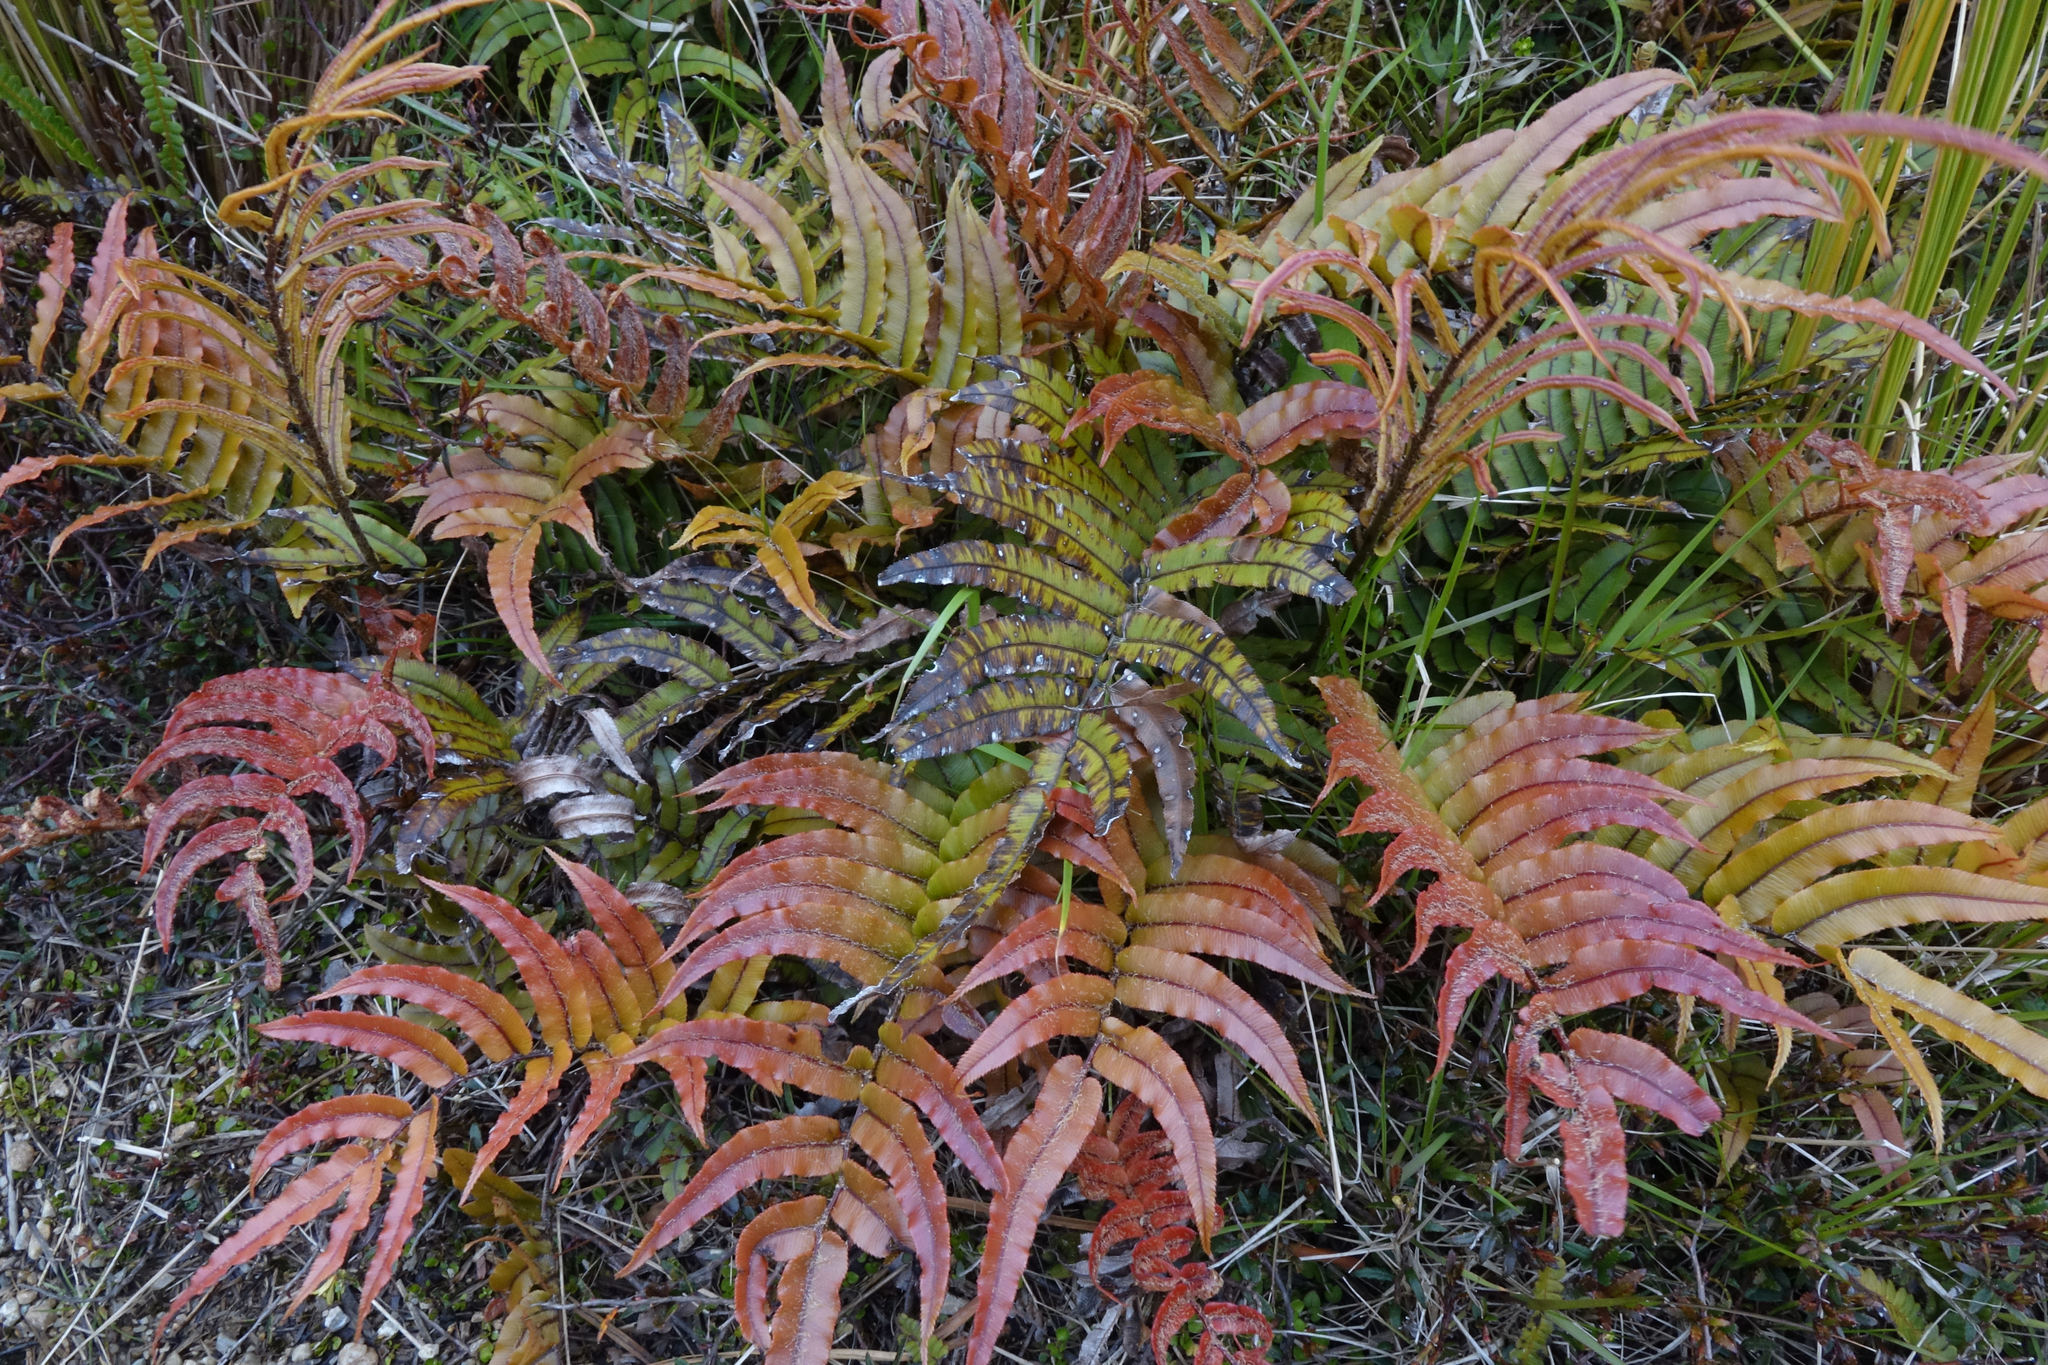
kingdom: Plantae
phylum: Tracheophyta
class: Polypodiopsida
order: Polypodiales
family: Blechnaceae
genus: Parablechnum
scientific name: Parablechnum montanum
